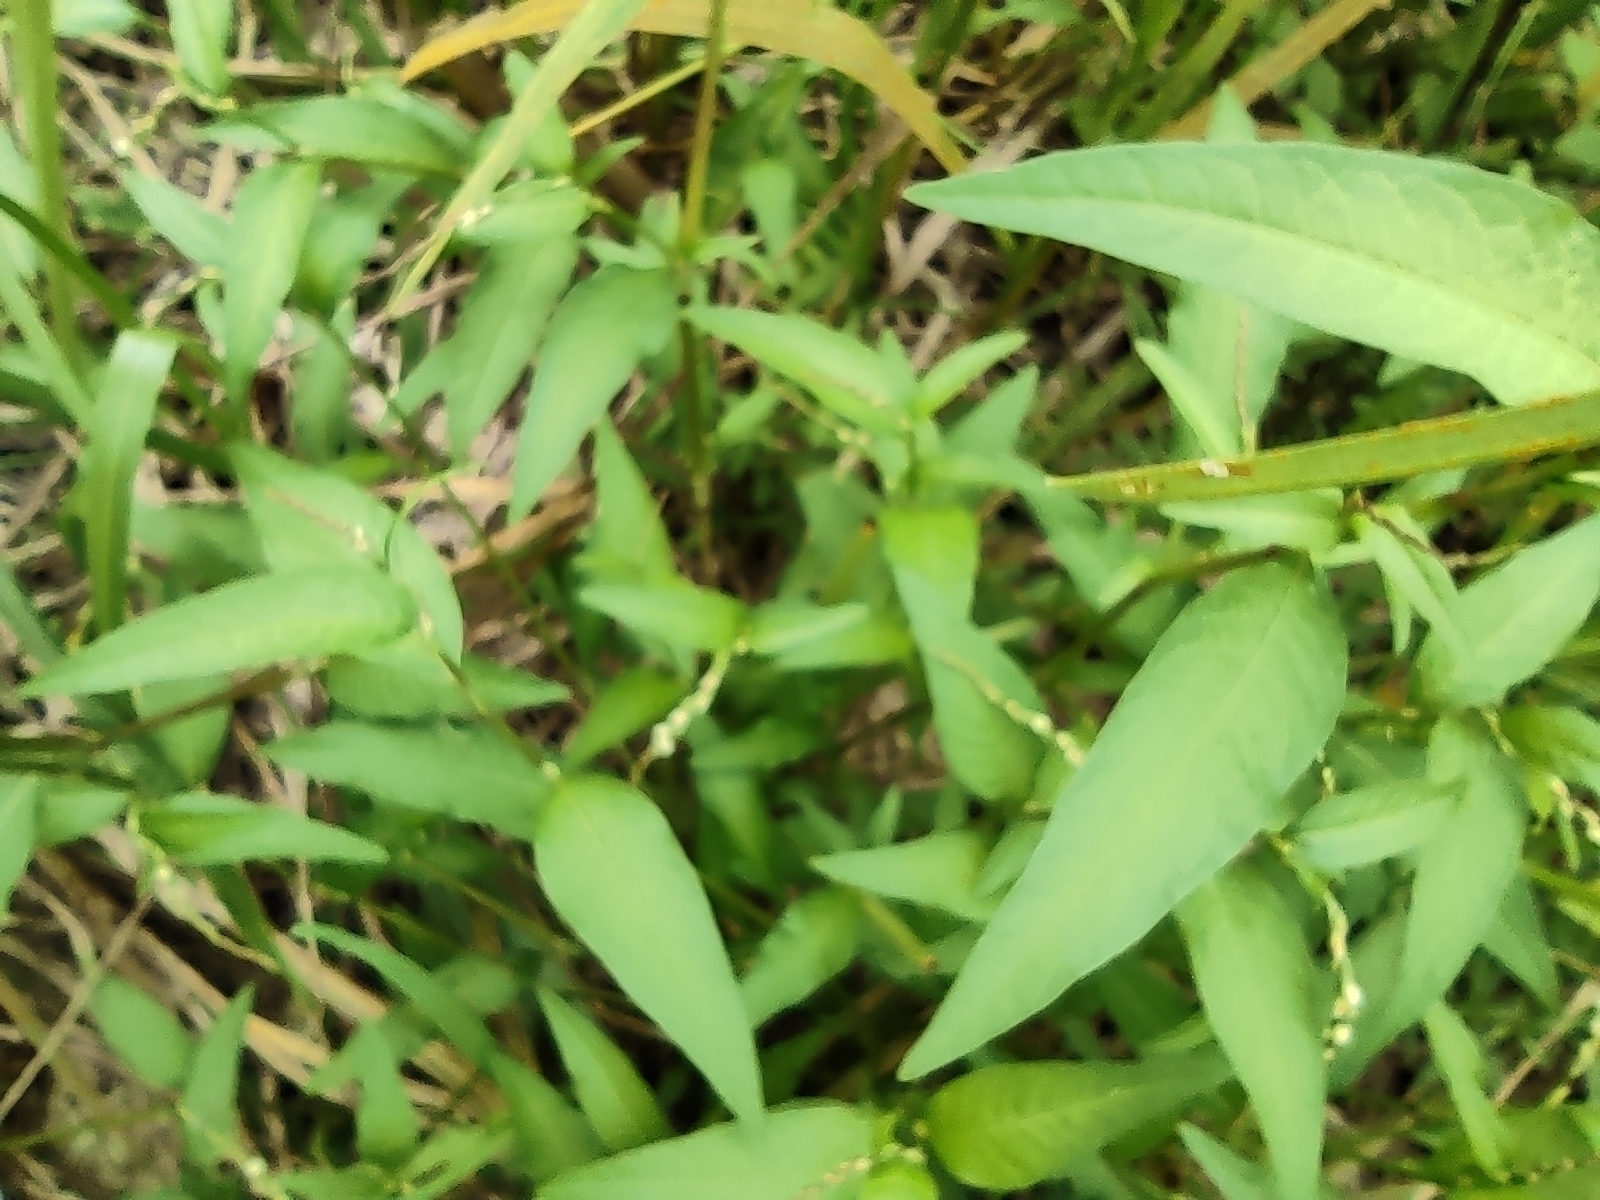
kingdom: Plantae
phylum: Tracheophyta
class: Magnoliopsida
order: Caryophyllales
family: Polygonaceae
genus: Persicaria
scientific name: Persicaria hydropiper
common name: Water-pepper
